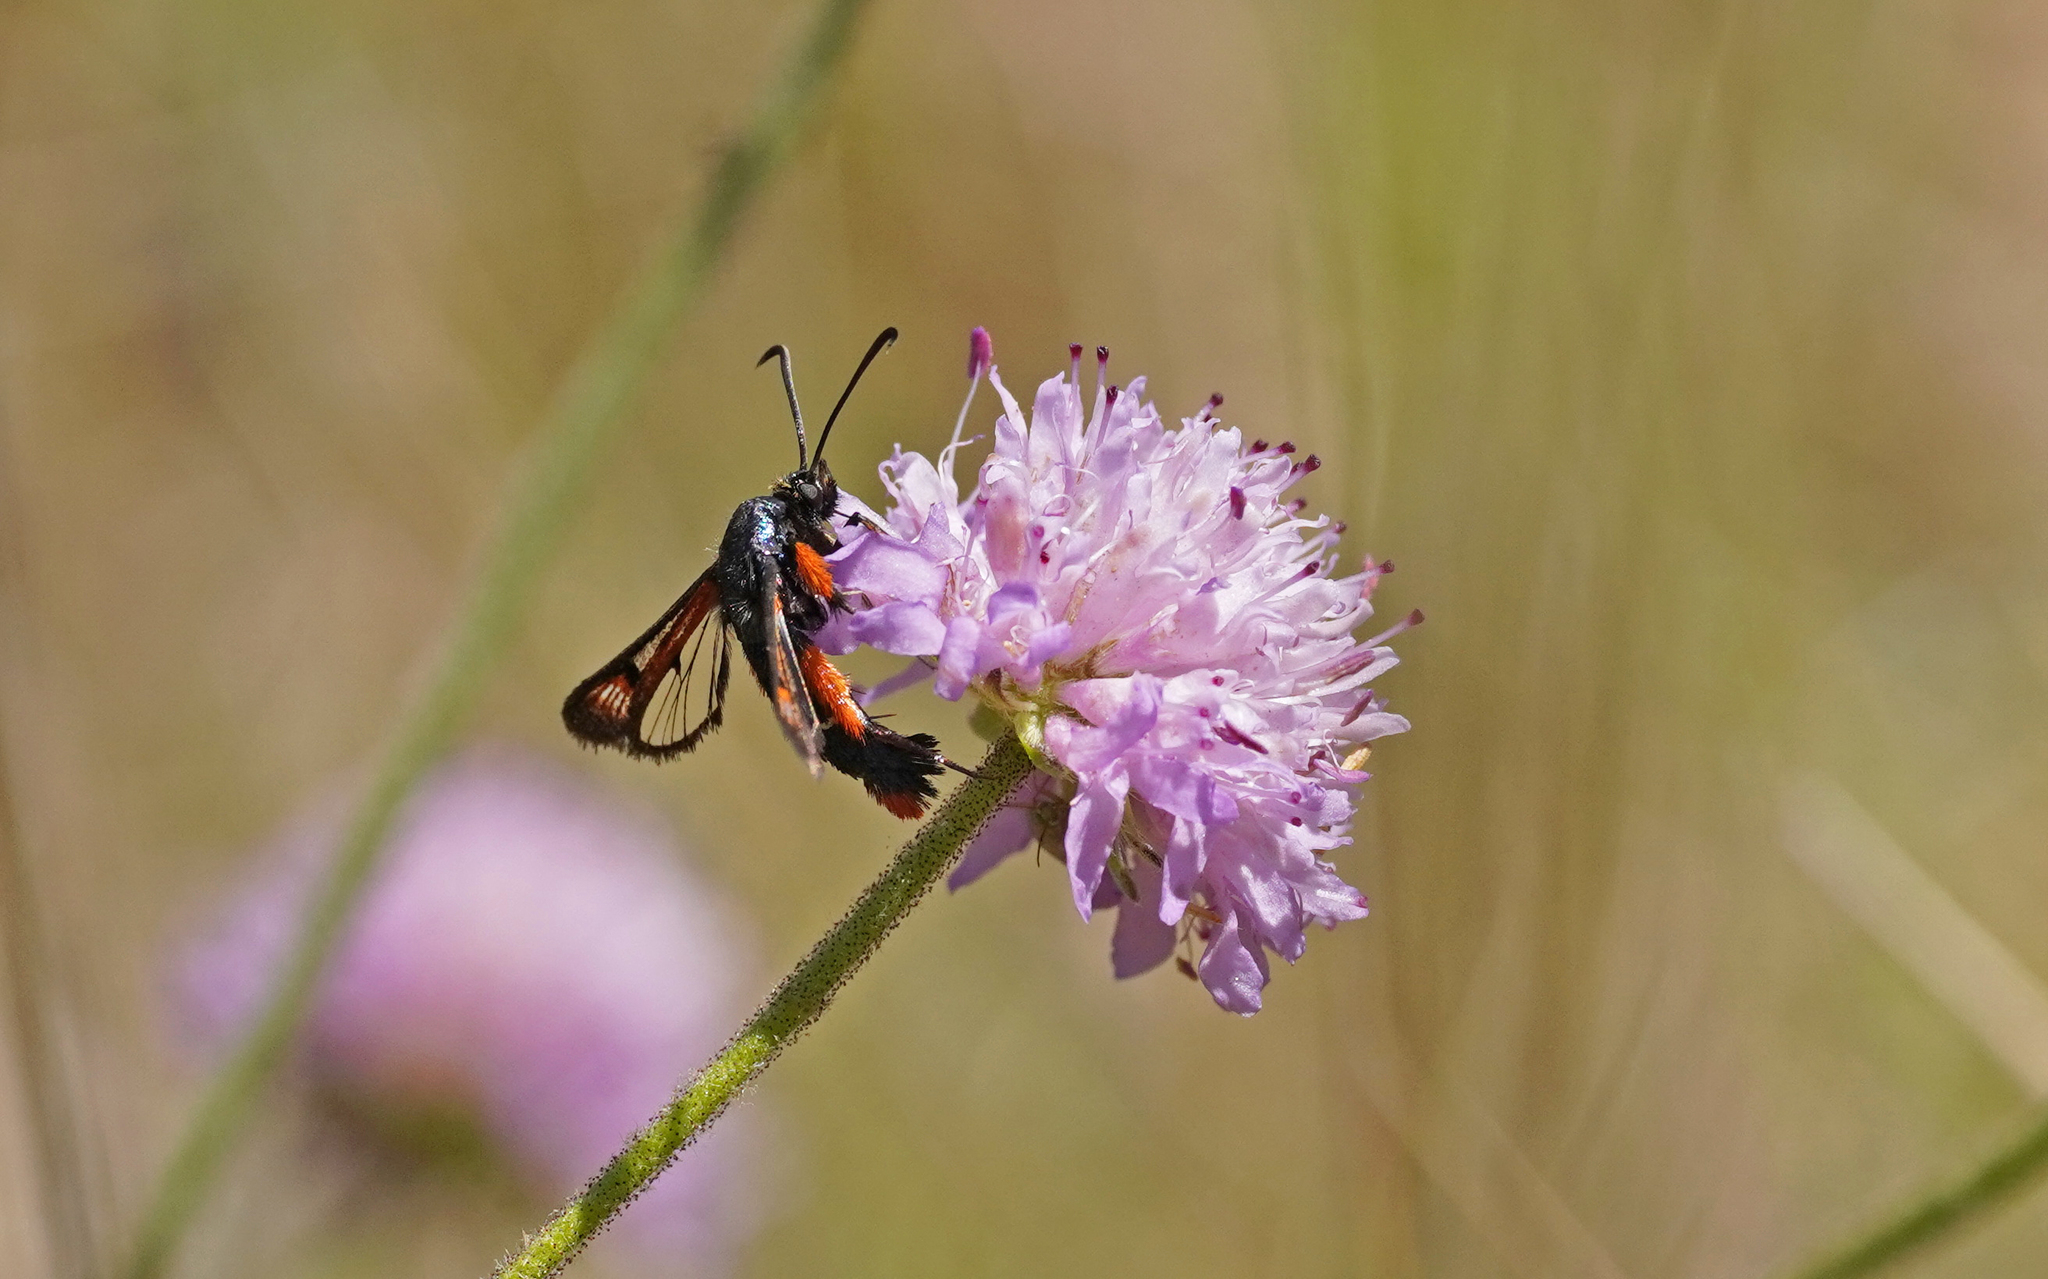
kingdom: Animalia
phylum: Arthropoda
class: Insecta
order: Lepidoptera
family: Sesiidae
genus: Pyropteron
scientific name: Pyropteron chrysidiforme
